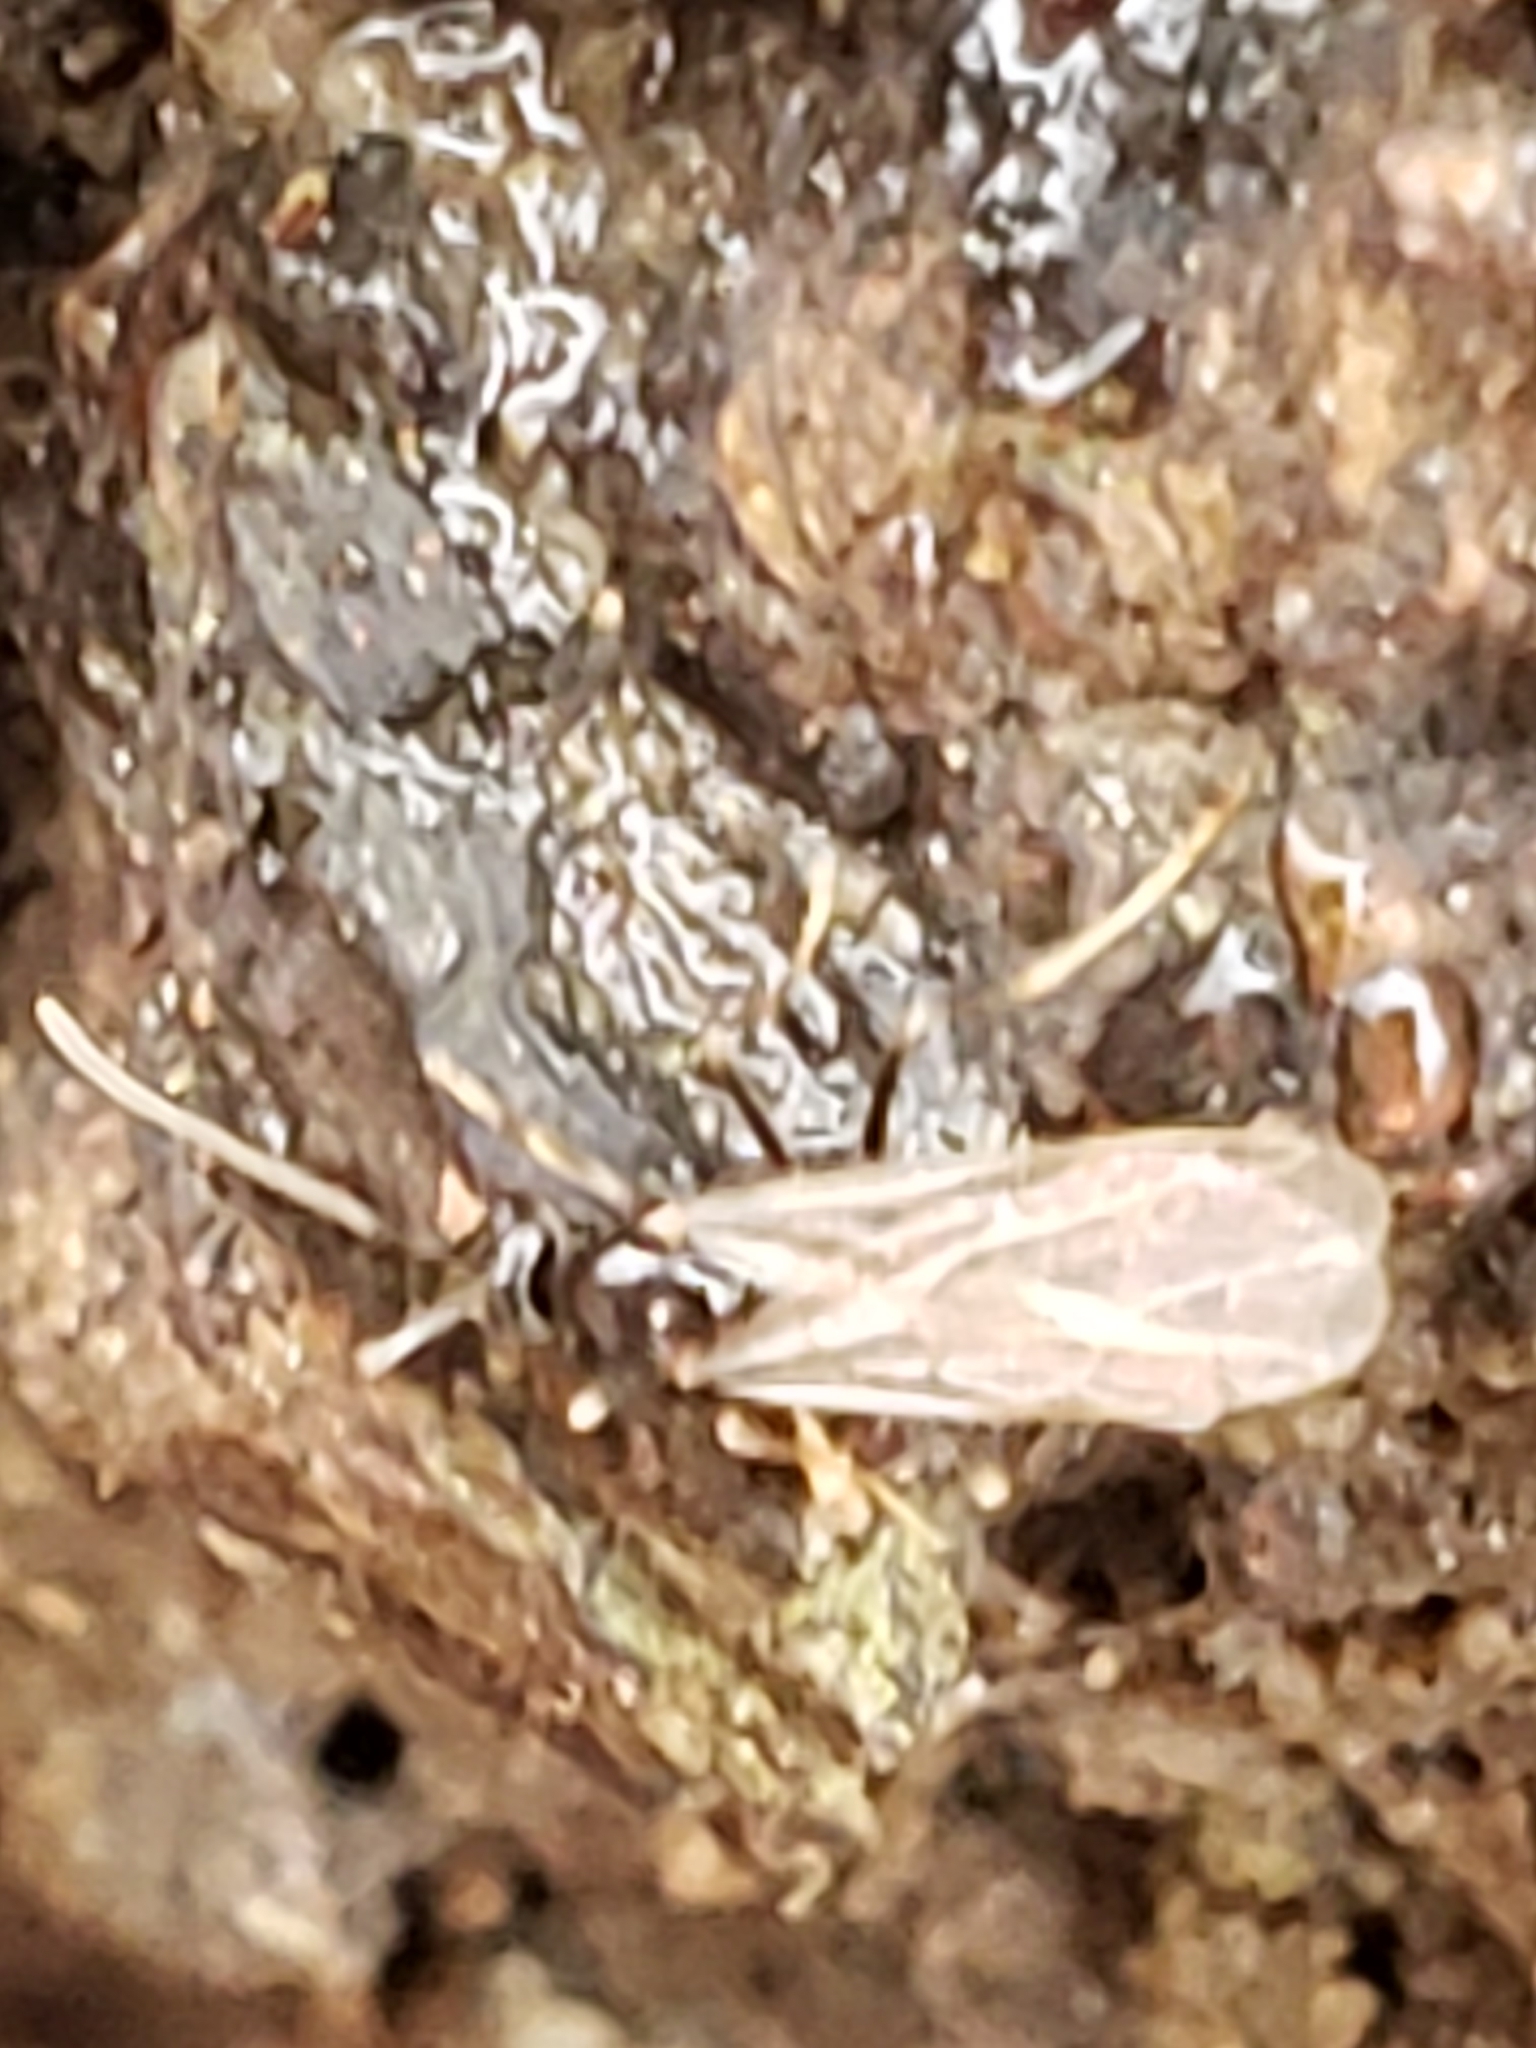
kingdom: Animalia
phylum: Arthropoda
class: Insecta
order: Hymenoptera
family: Formicidae
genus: Prenolepis
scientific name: Prenolepis imparis
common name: Small honey ant
